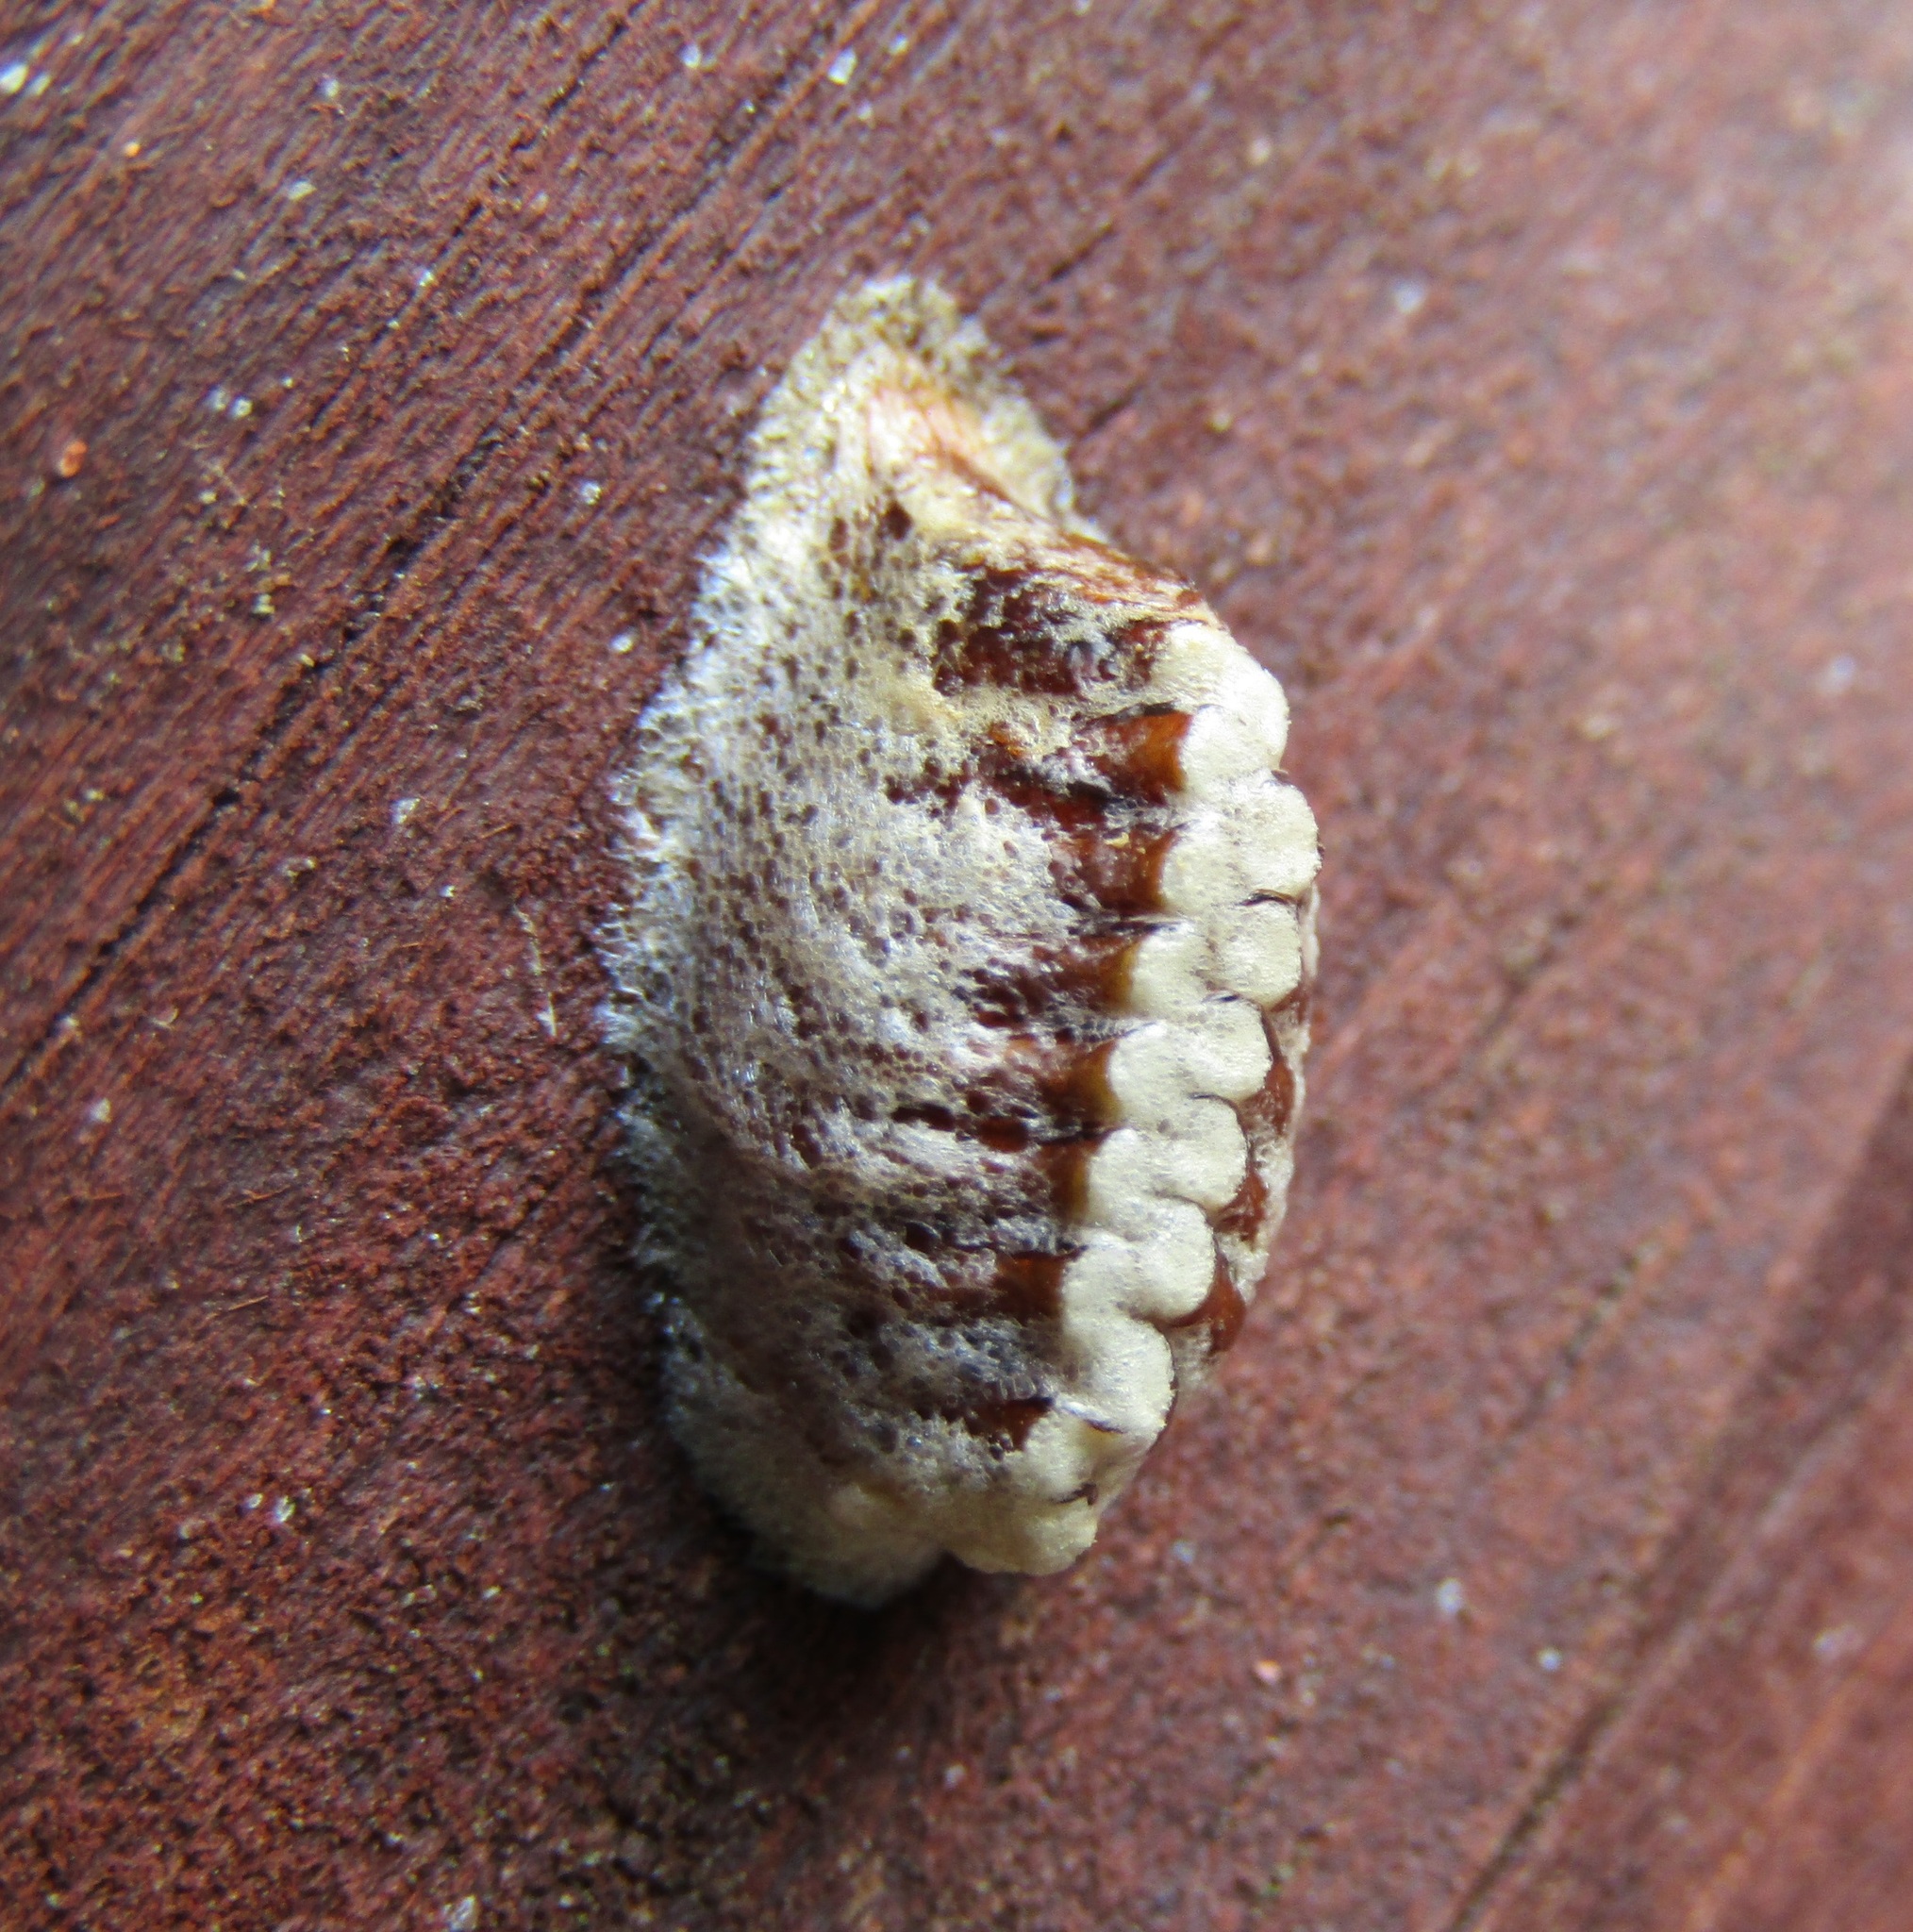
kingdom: Animalia
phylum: Arthropoda
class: Insecta
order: Mantodea
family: Mantidae
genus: Orthodera
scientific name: Orthodera novaezealandiae
